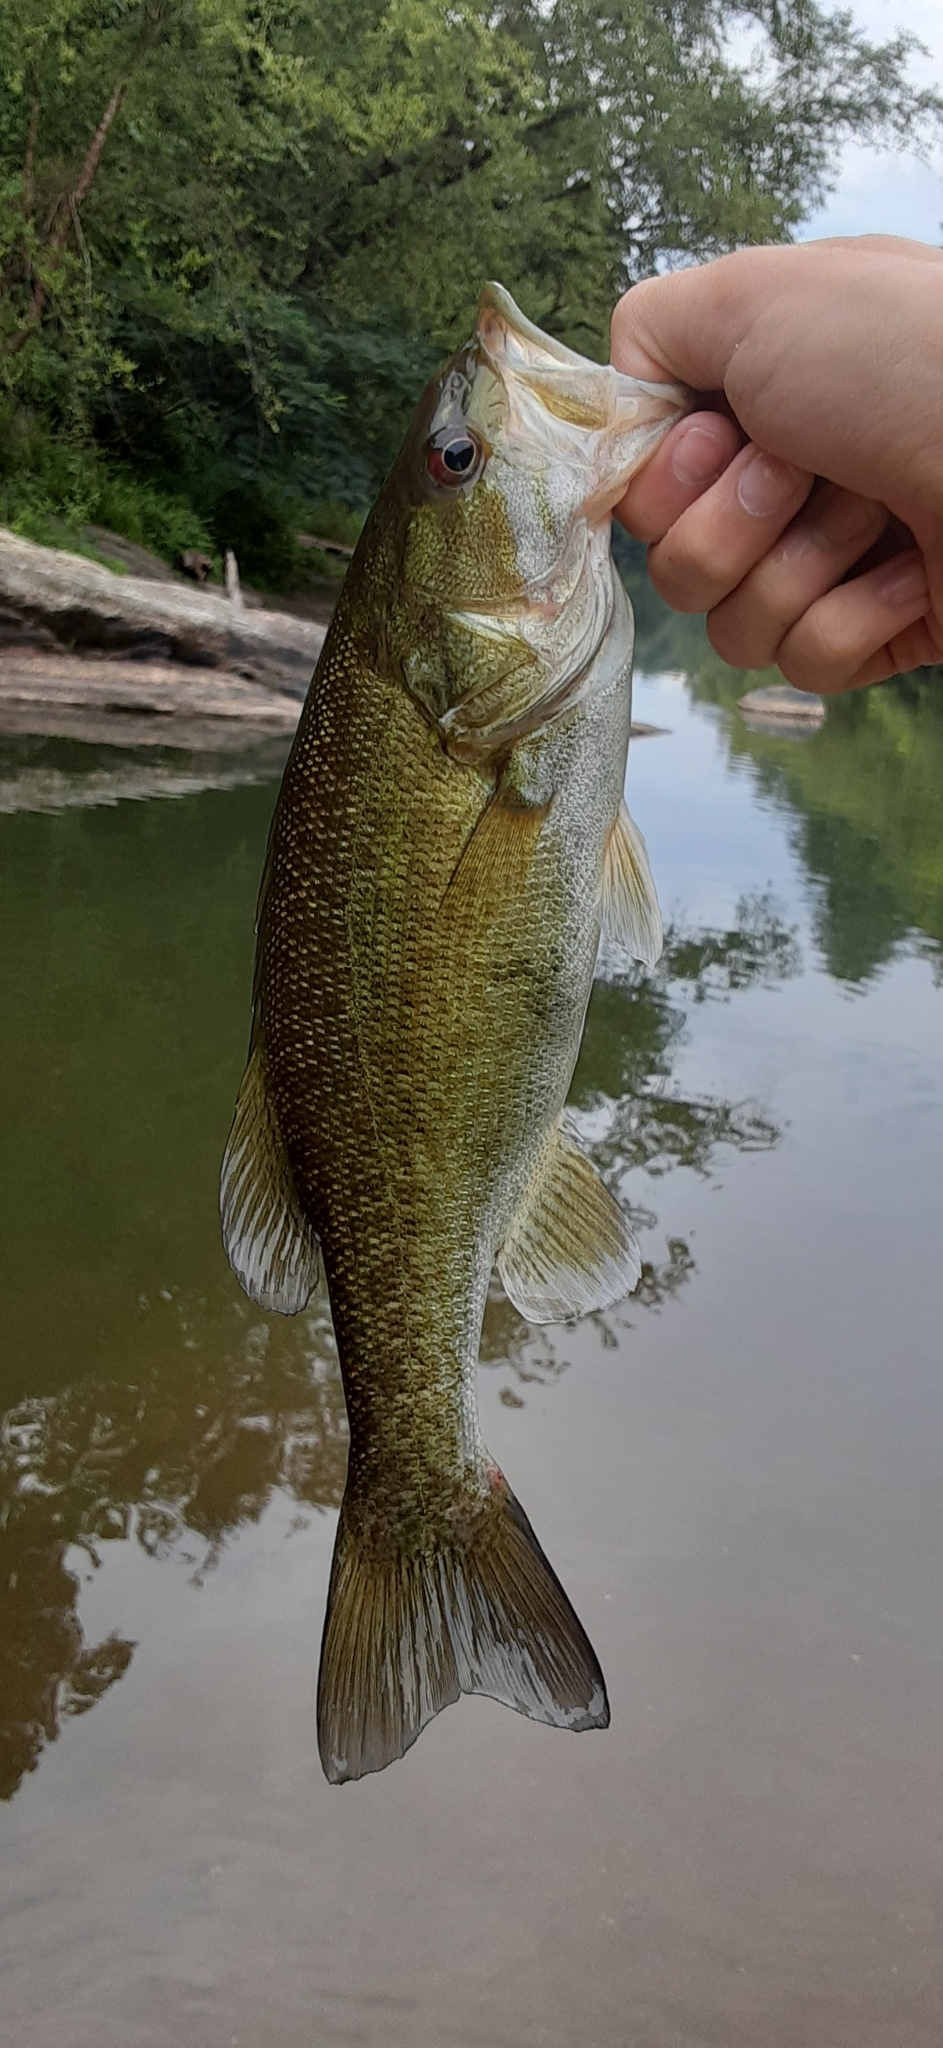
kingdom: Animalia
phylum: Chordata
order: Perciformes
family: Centrarchidae
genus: Micropterus
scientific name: Micropterus dolomieu
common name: Smallmouth bass
